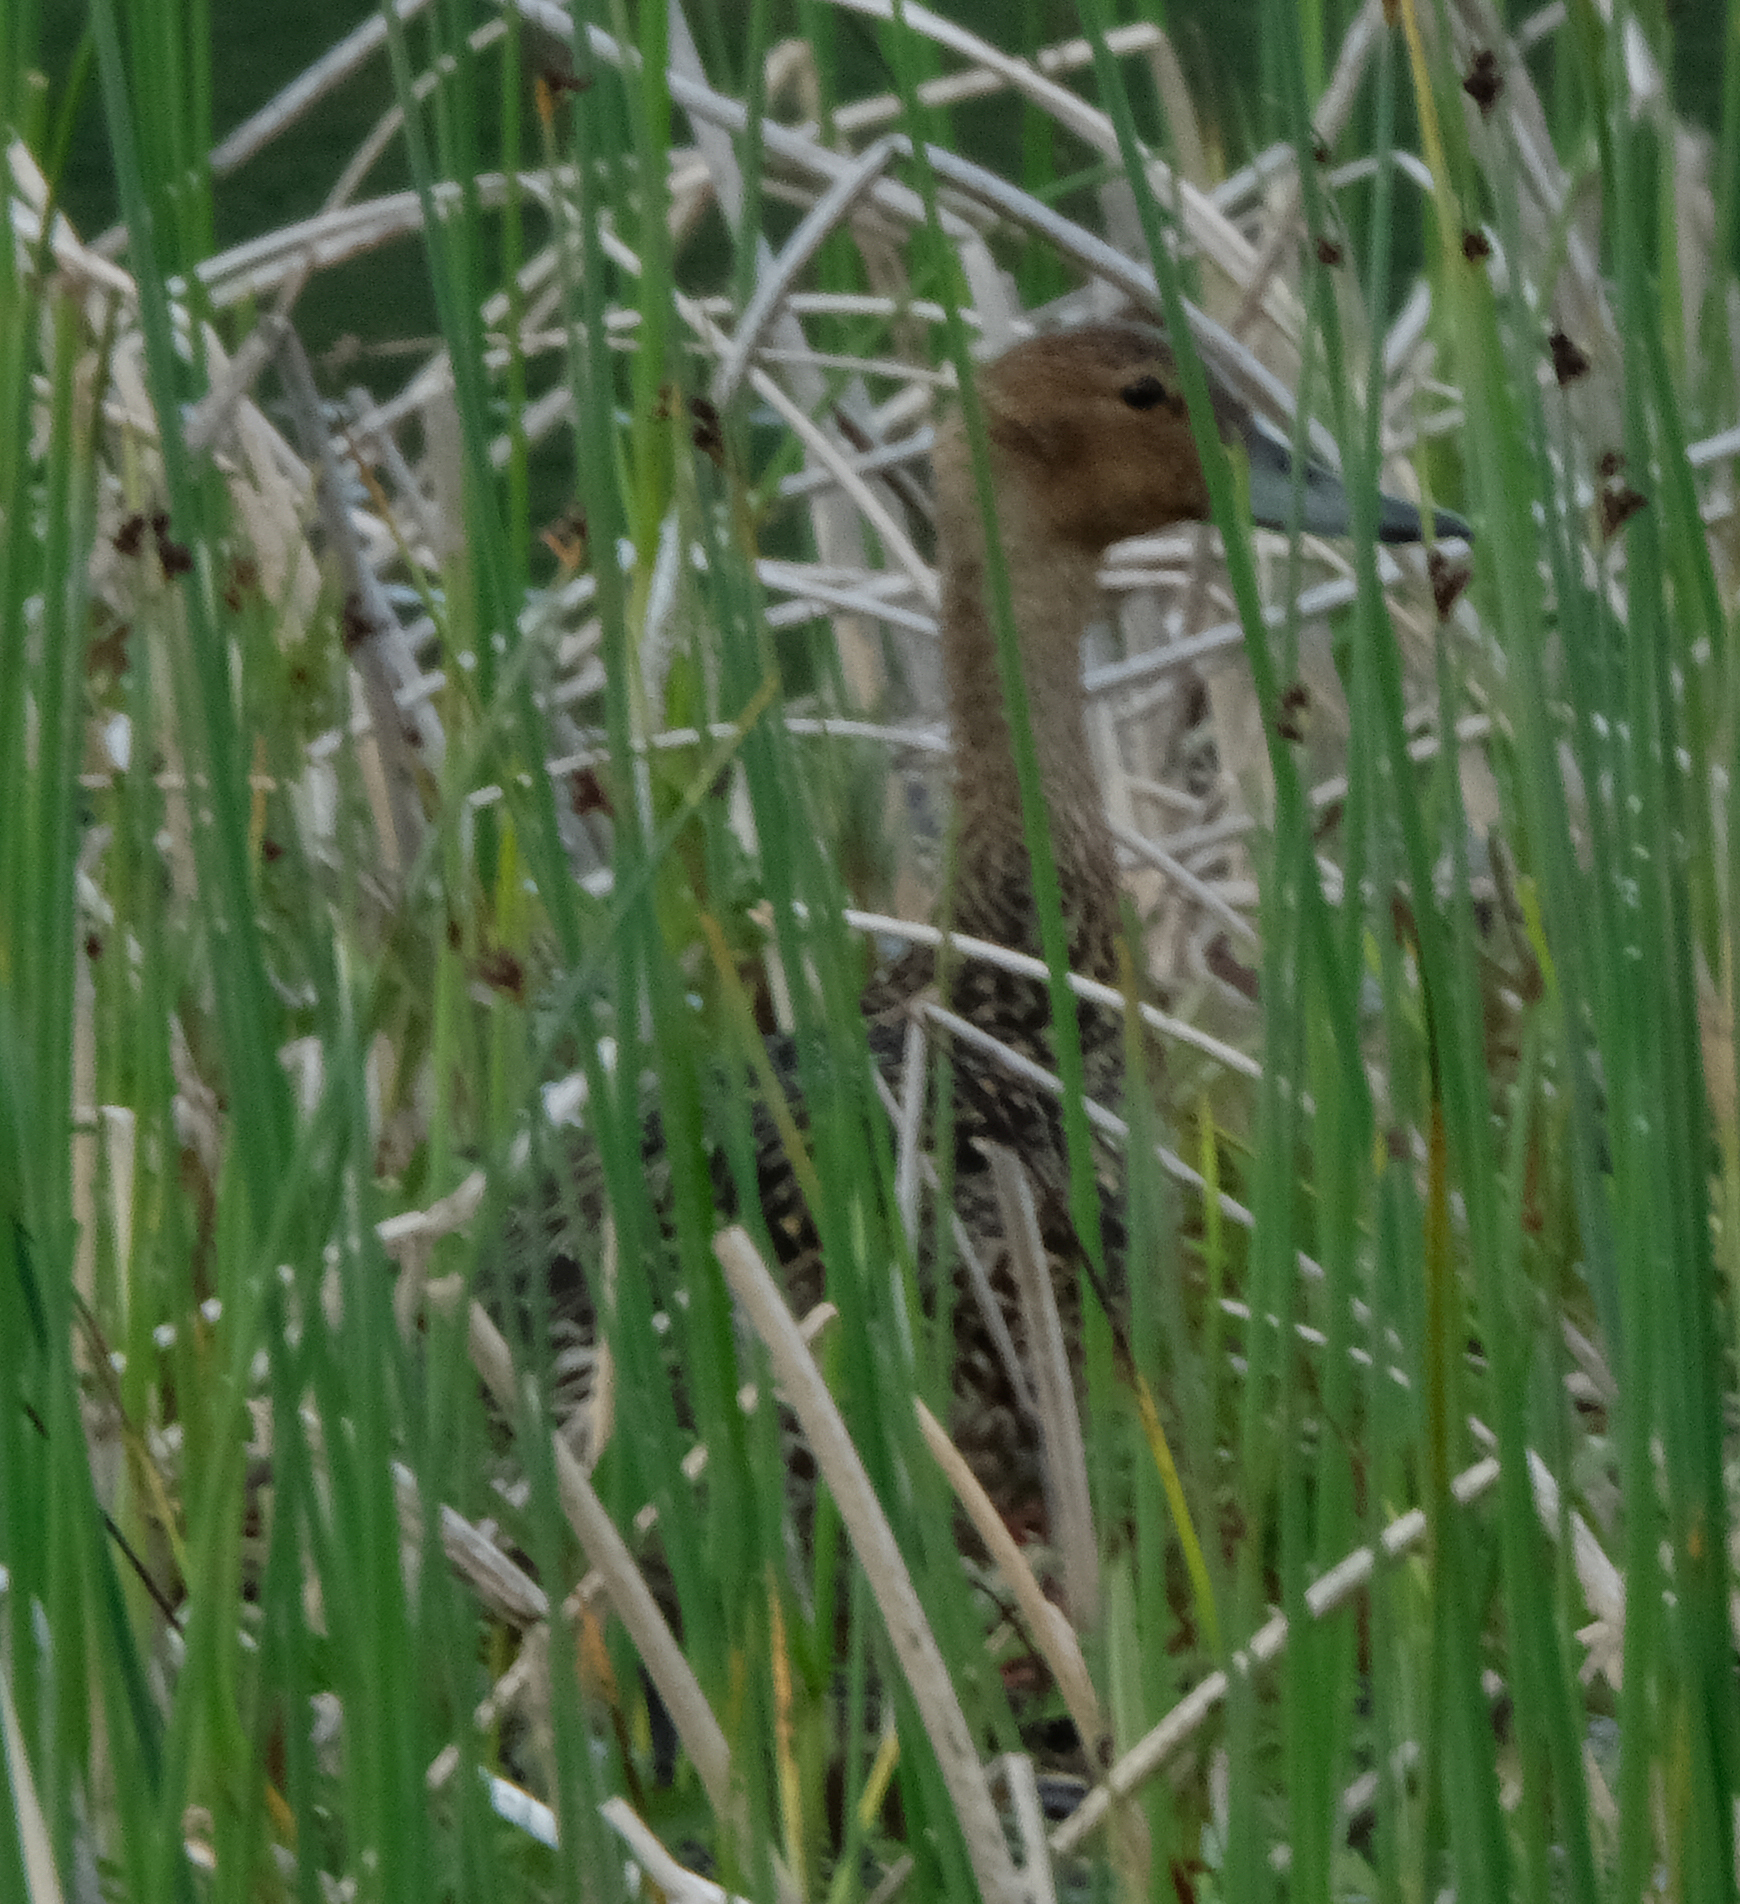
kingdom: Animalia
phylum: Chordata
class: Aves
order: Anseriformes
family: Anatidae
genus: Anas
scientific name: Anas acuta
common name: Northern pintail
